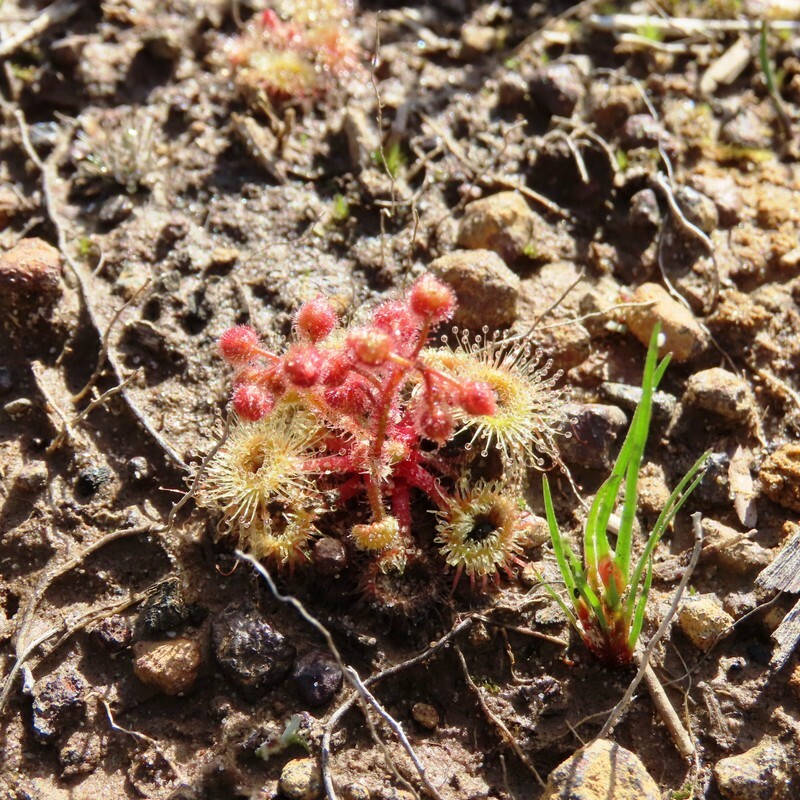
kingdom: Plantae
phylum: Tracheophyta
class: Magnoliopsida
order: Caryophyllales
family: Droseraceae
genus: Drosera
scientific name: Drosera glanduligera
